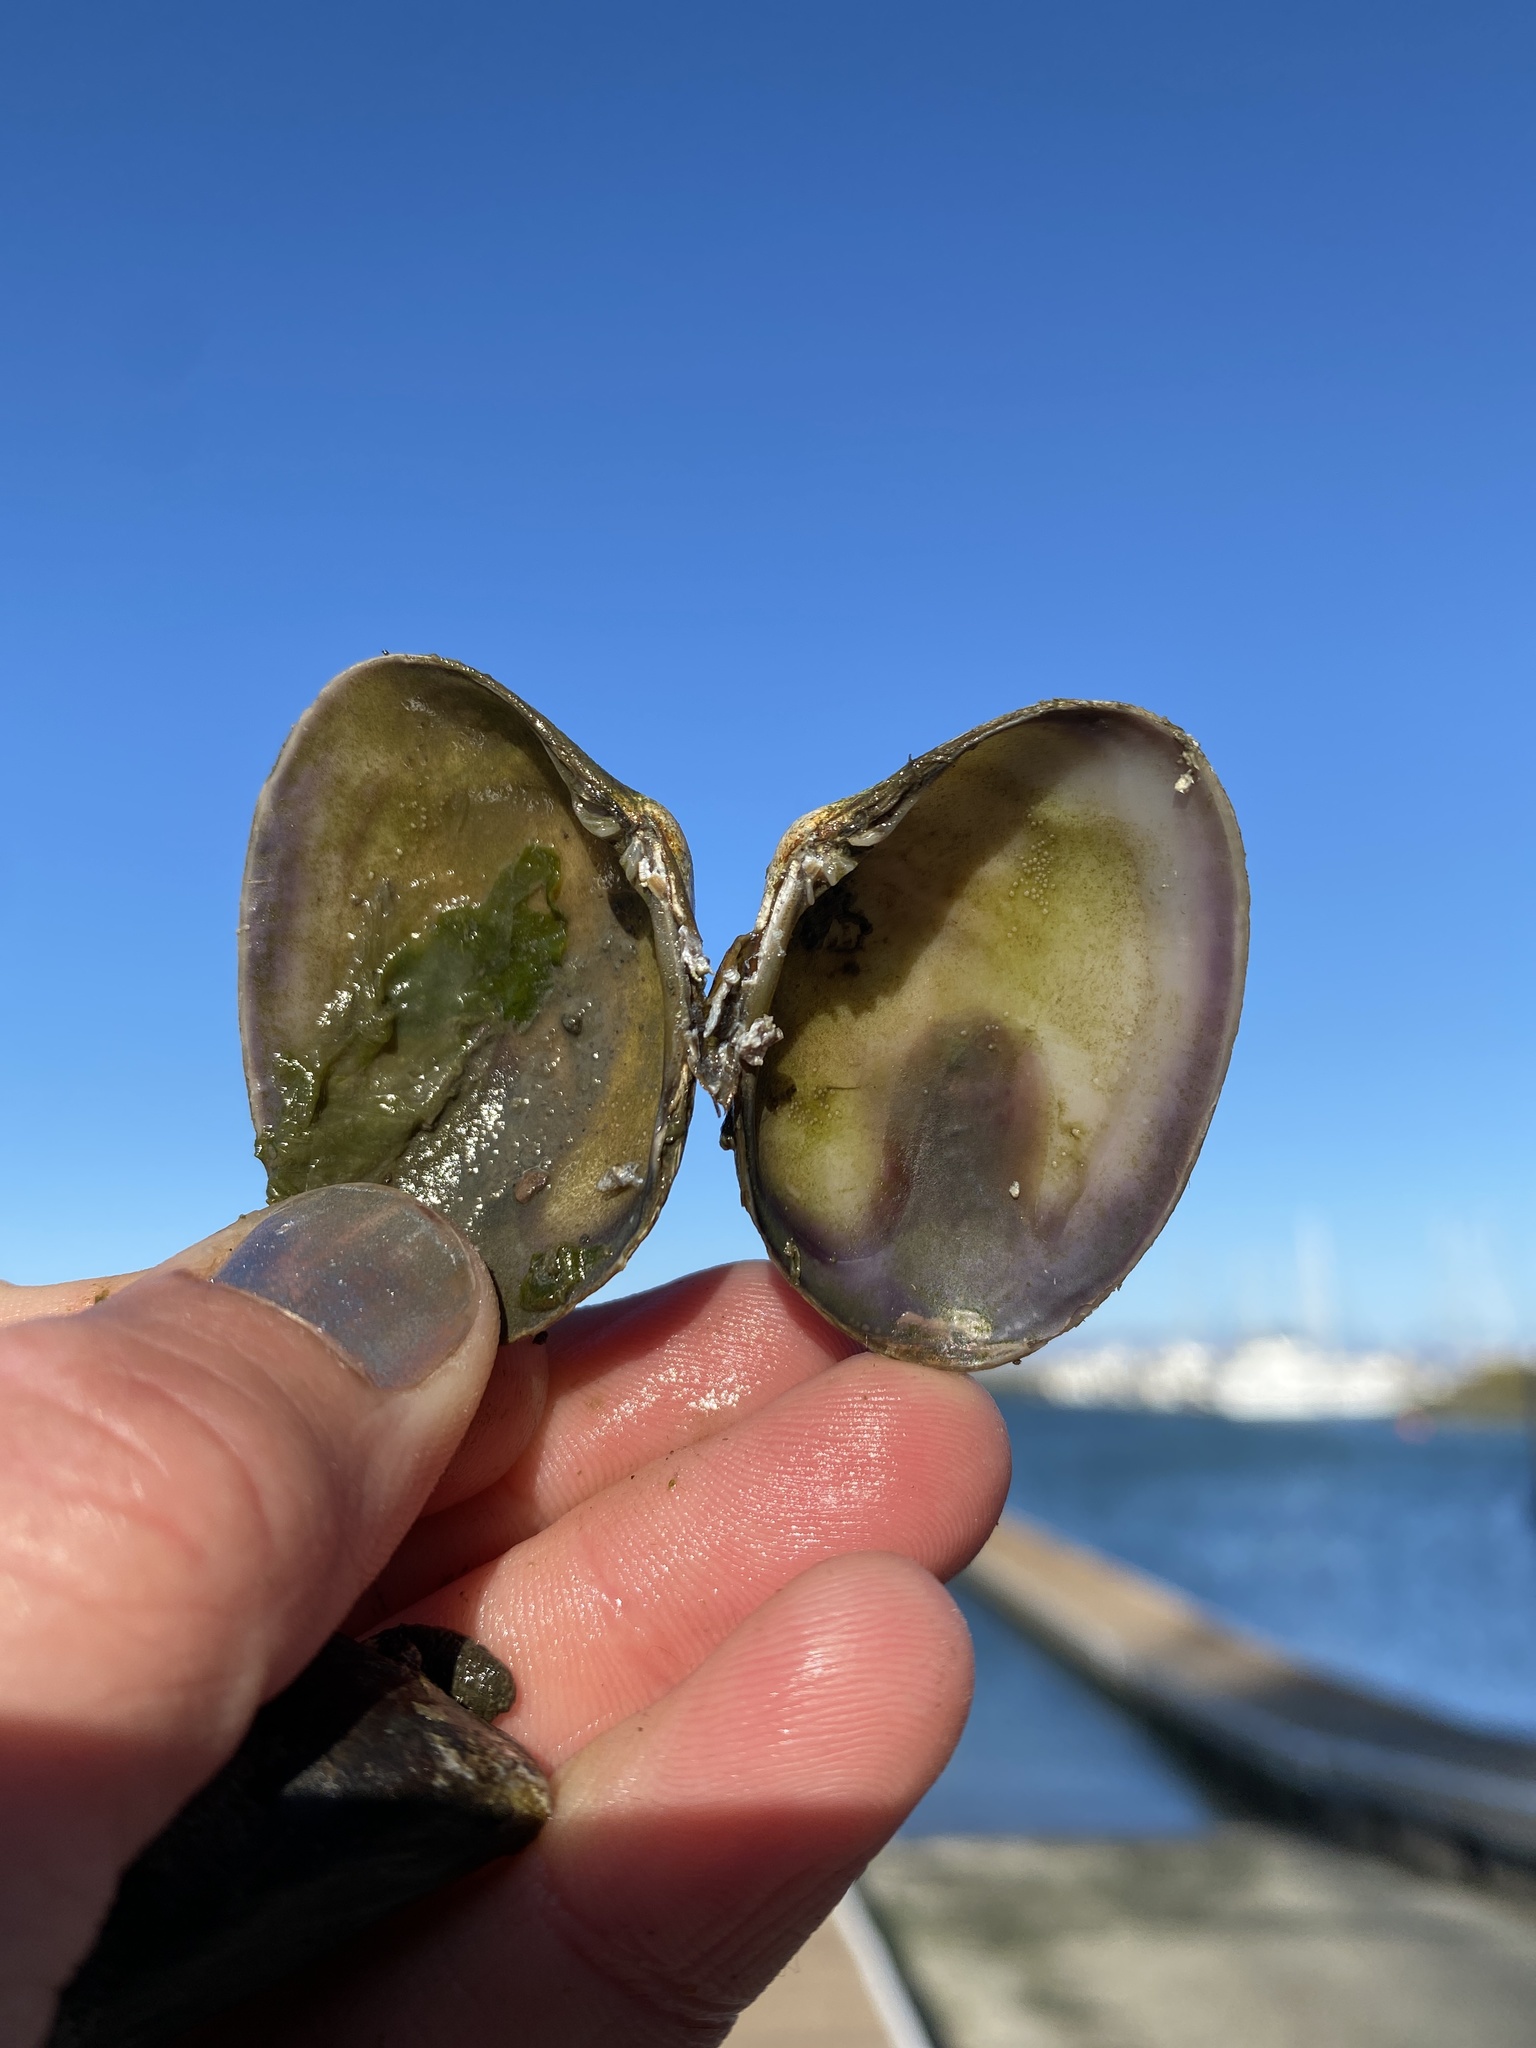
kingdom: Animalia
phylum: Mollusca
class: Bivalvia
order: Venerida
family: Veneridae
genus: Ruditapes
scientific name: Ruditapes philippinarum
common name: Manila clam
